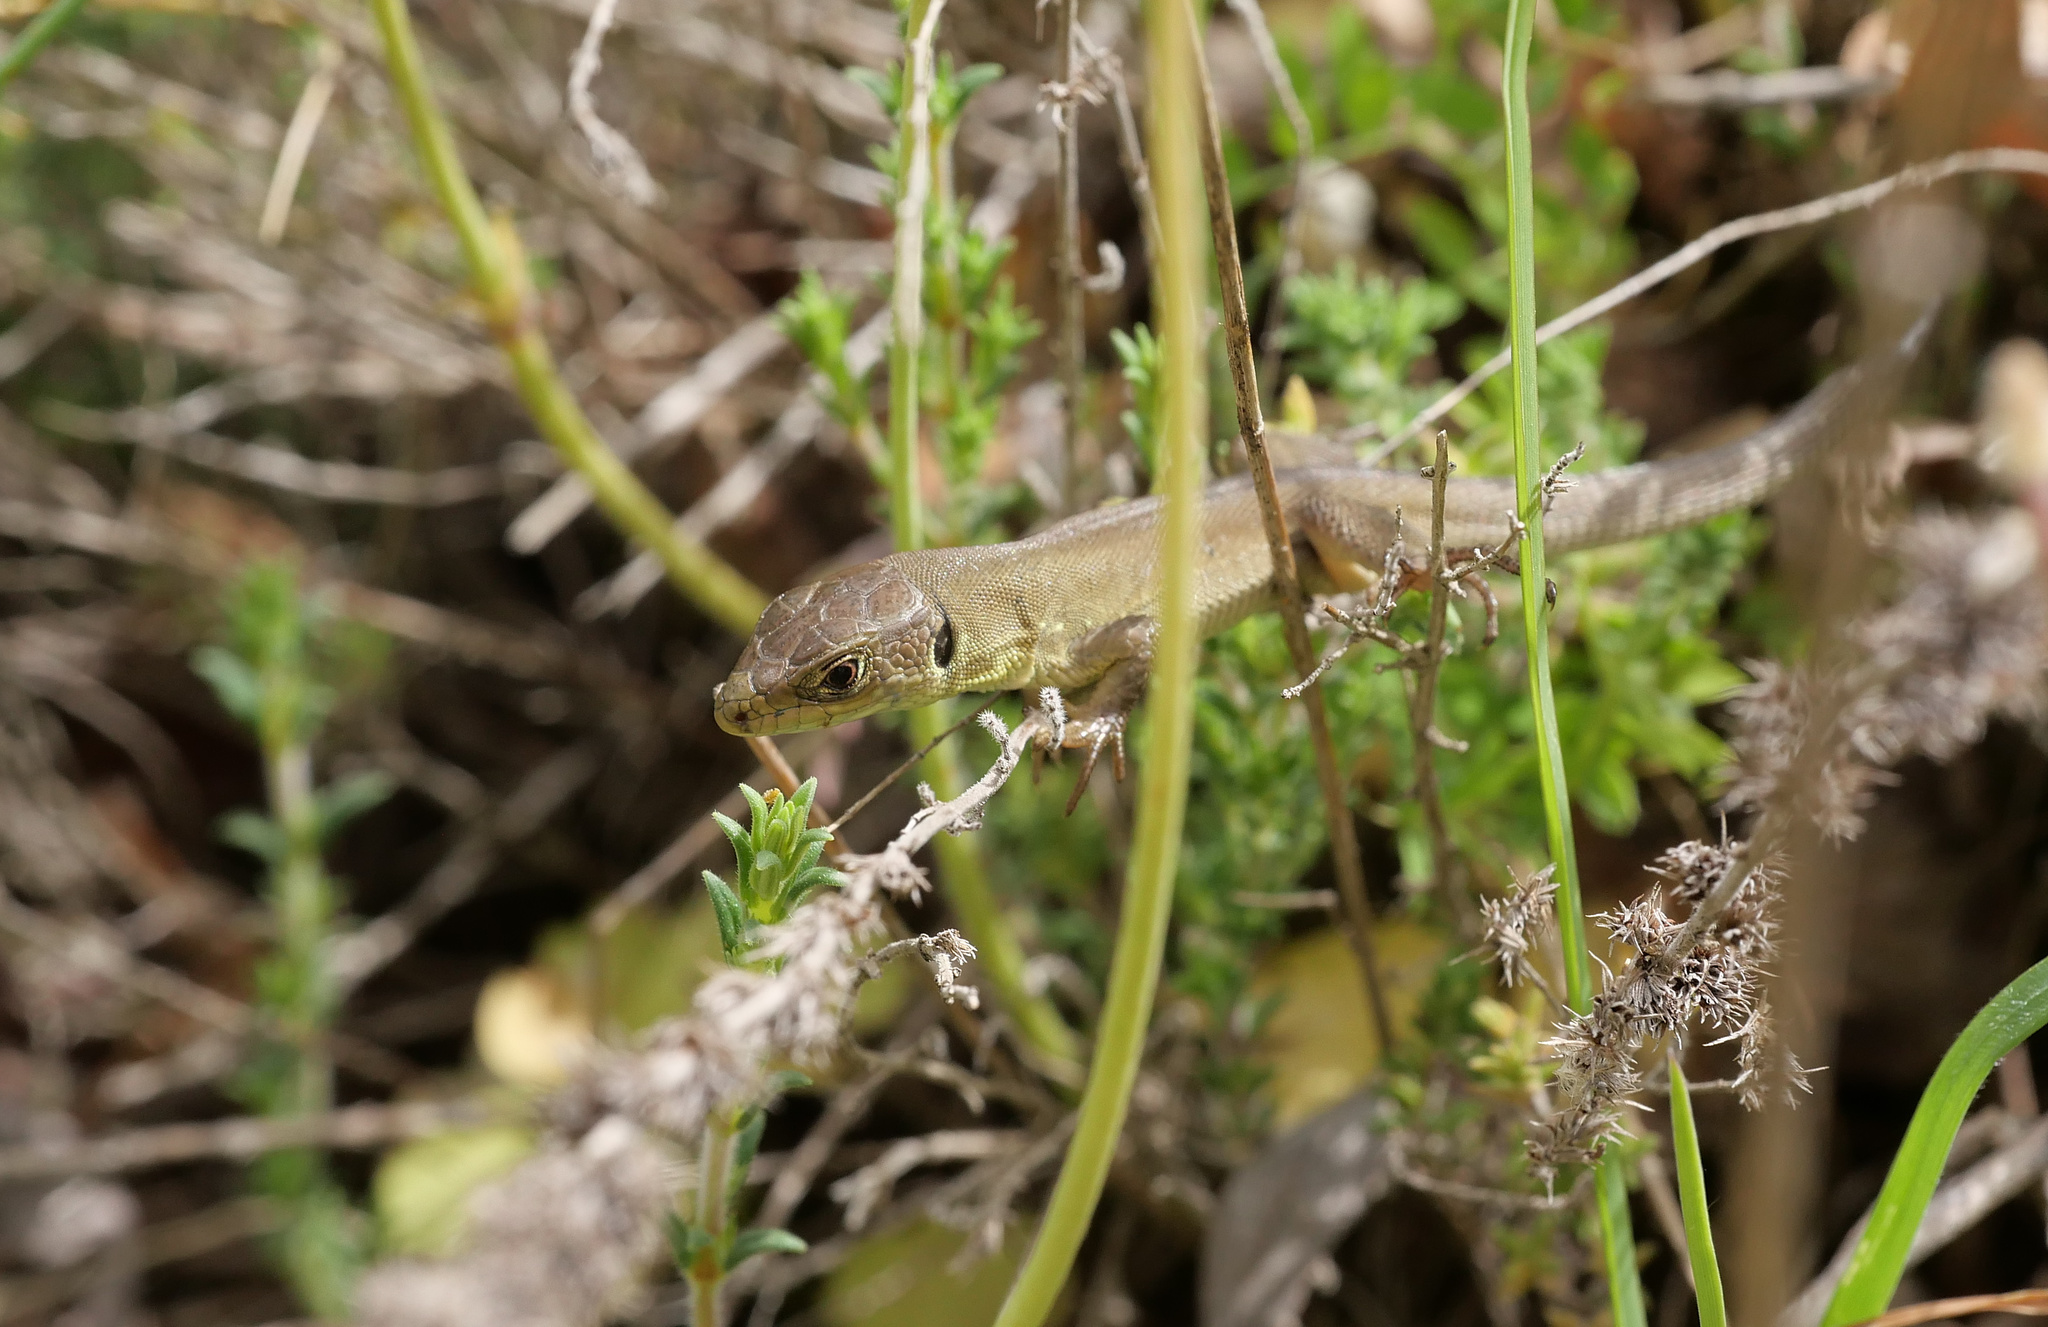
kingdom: Animalia
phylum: Chordata
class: Squamata
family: Lacertidae
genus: Lacerta
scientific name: Lacerta viridis
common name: European green lizard
